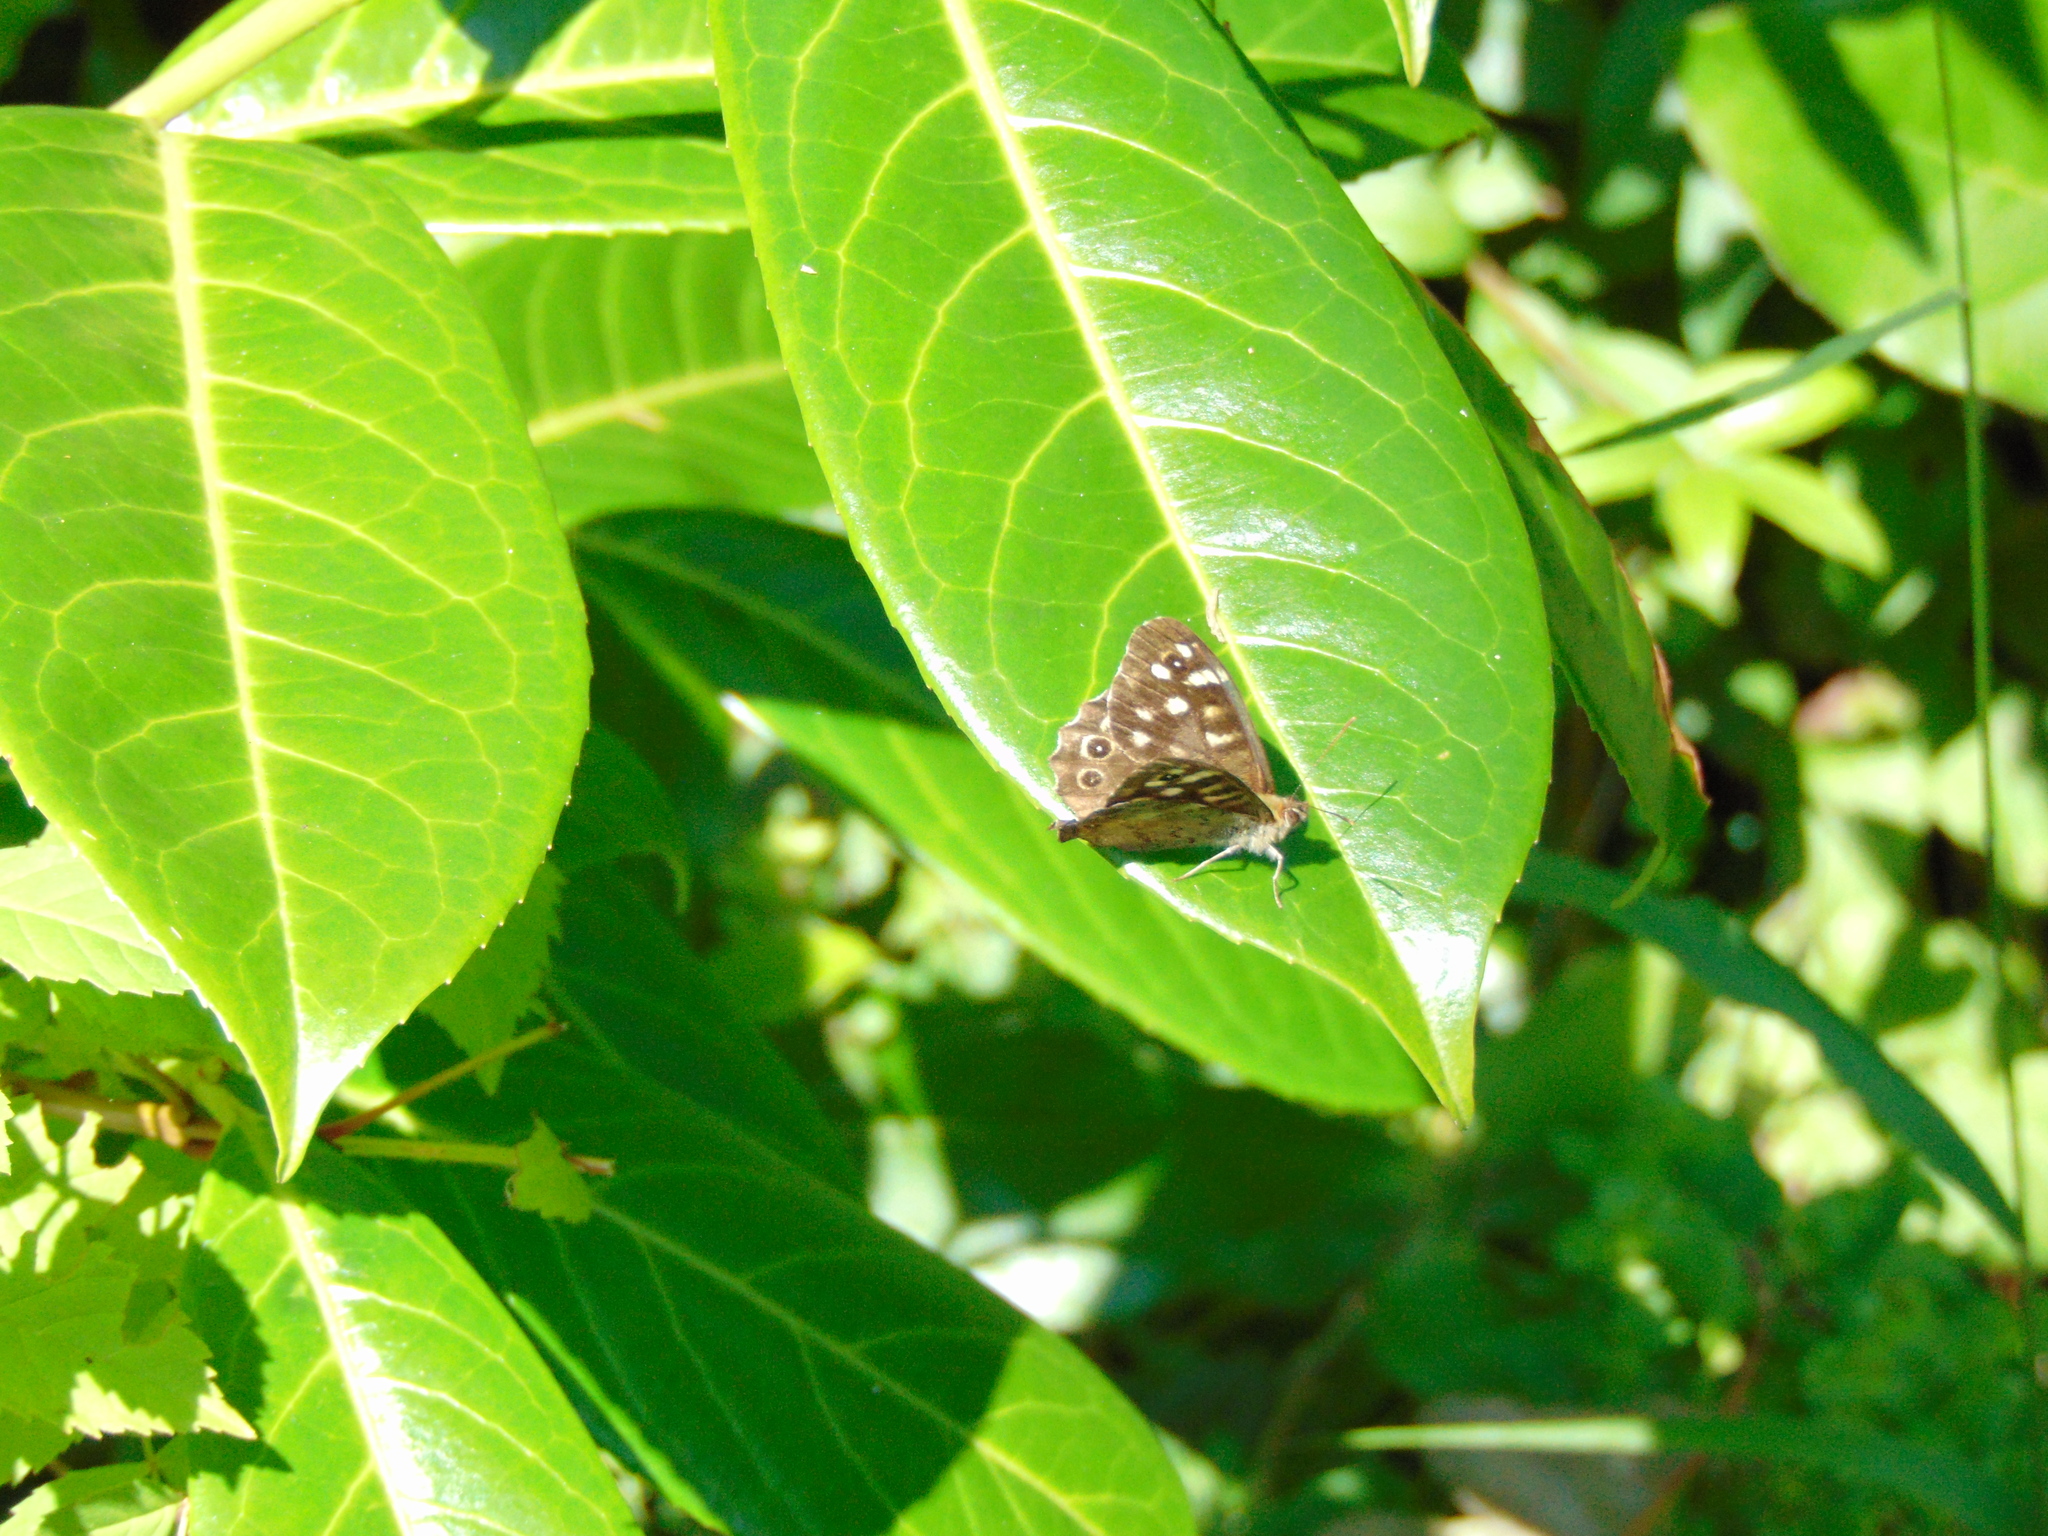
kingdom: Animalia
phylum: Arthropoda
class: Insecta
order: Lepidoptera
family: Nymphalidae
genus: Pararge
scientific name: Pararge aegeria
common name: Speckled wood
